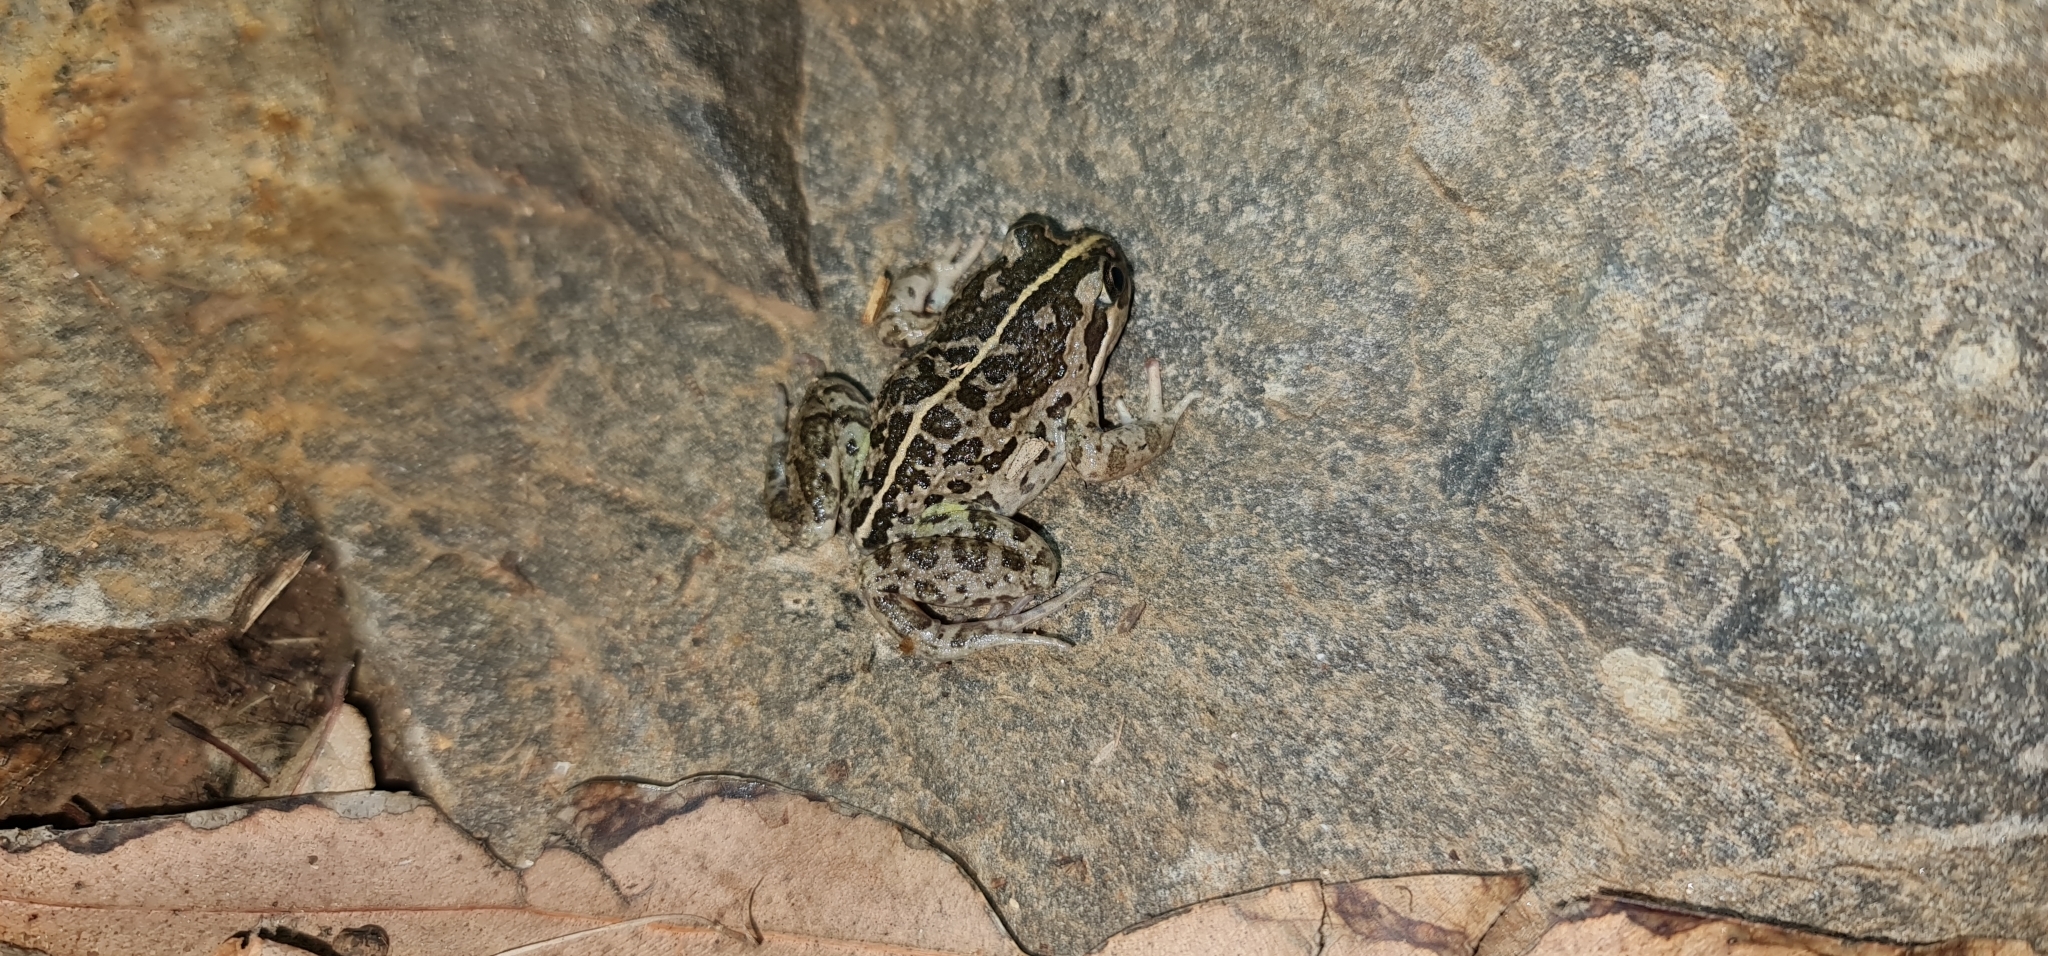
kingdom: Animalia
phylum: Chordata
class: Amphibia
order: Anura
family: Limnodynastidae
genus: Limnodynastes
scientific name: Limnodynastes tasmaniensis
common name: Spotted marsh frog
